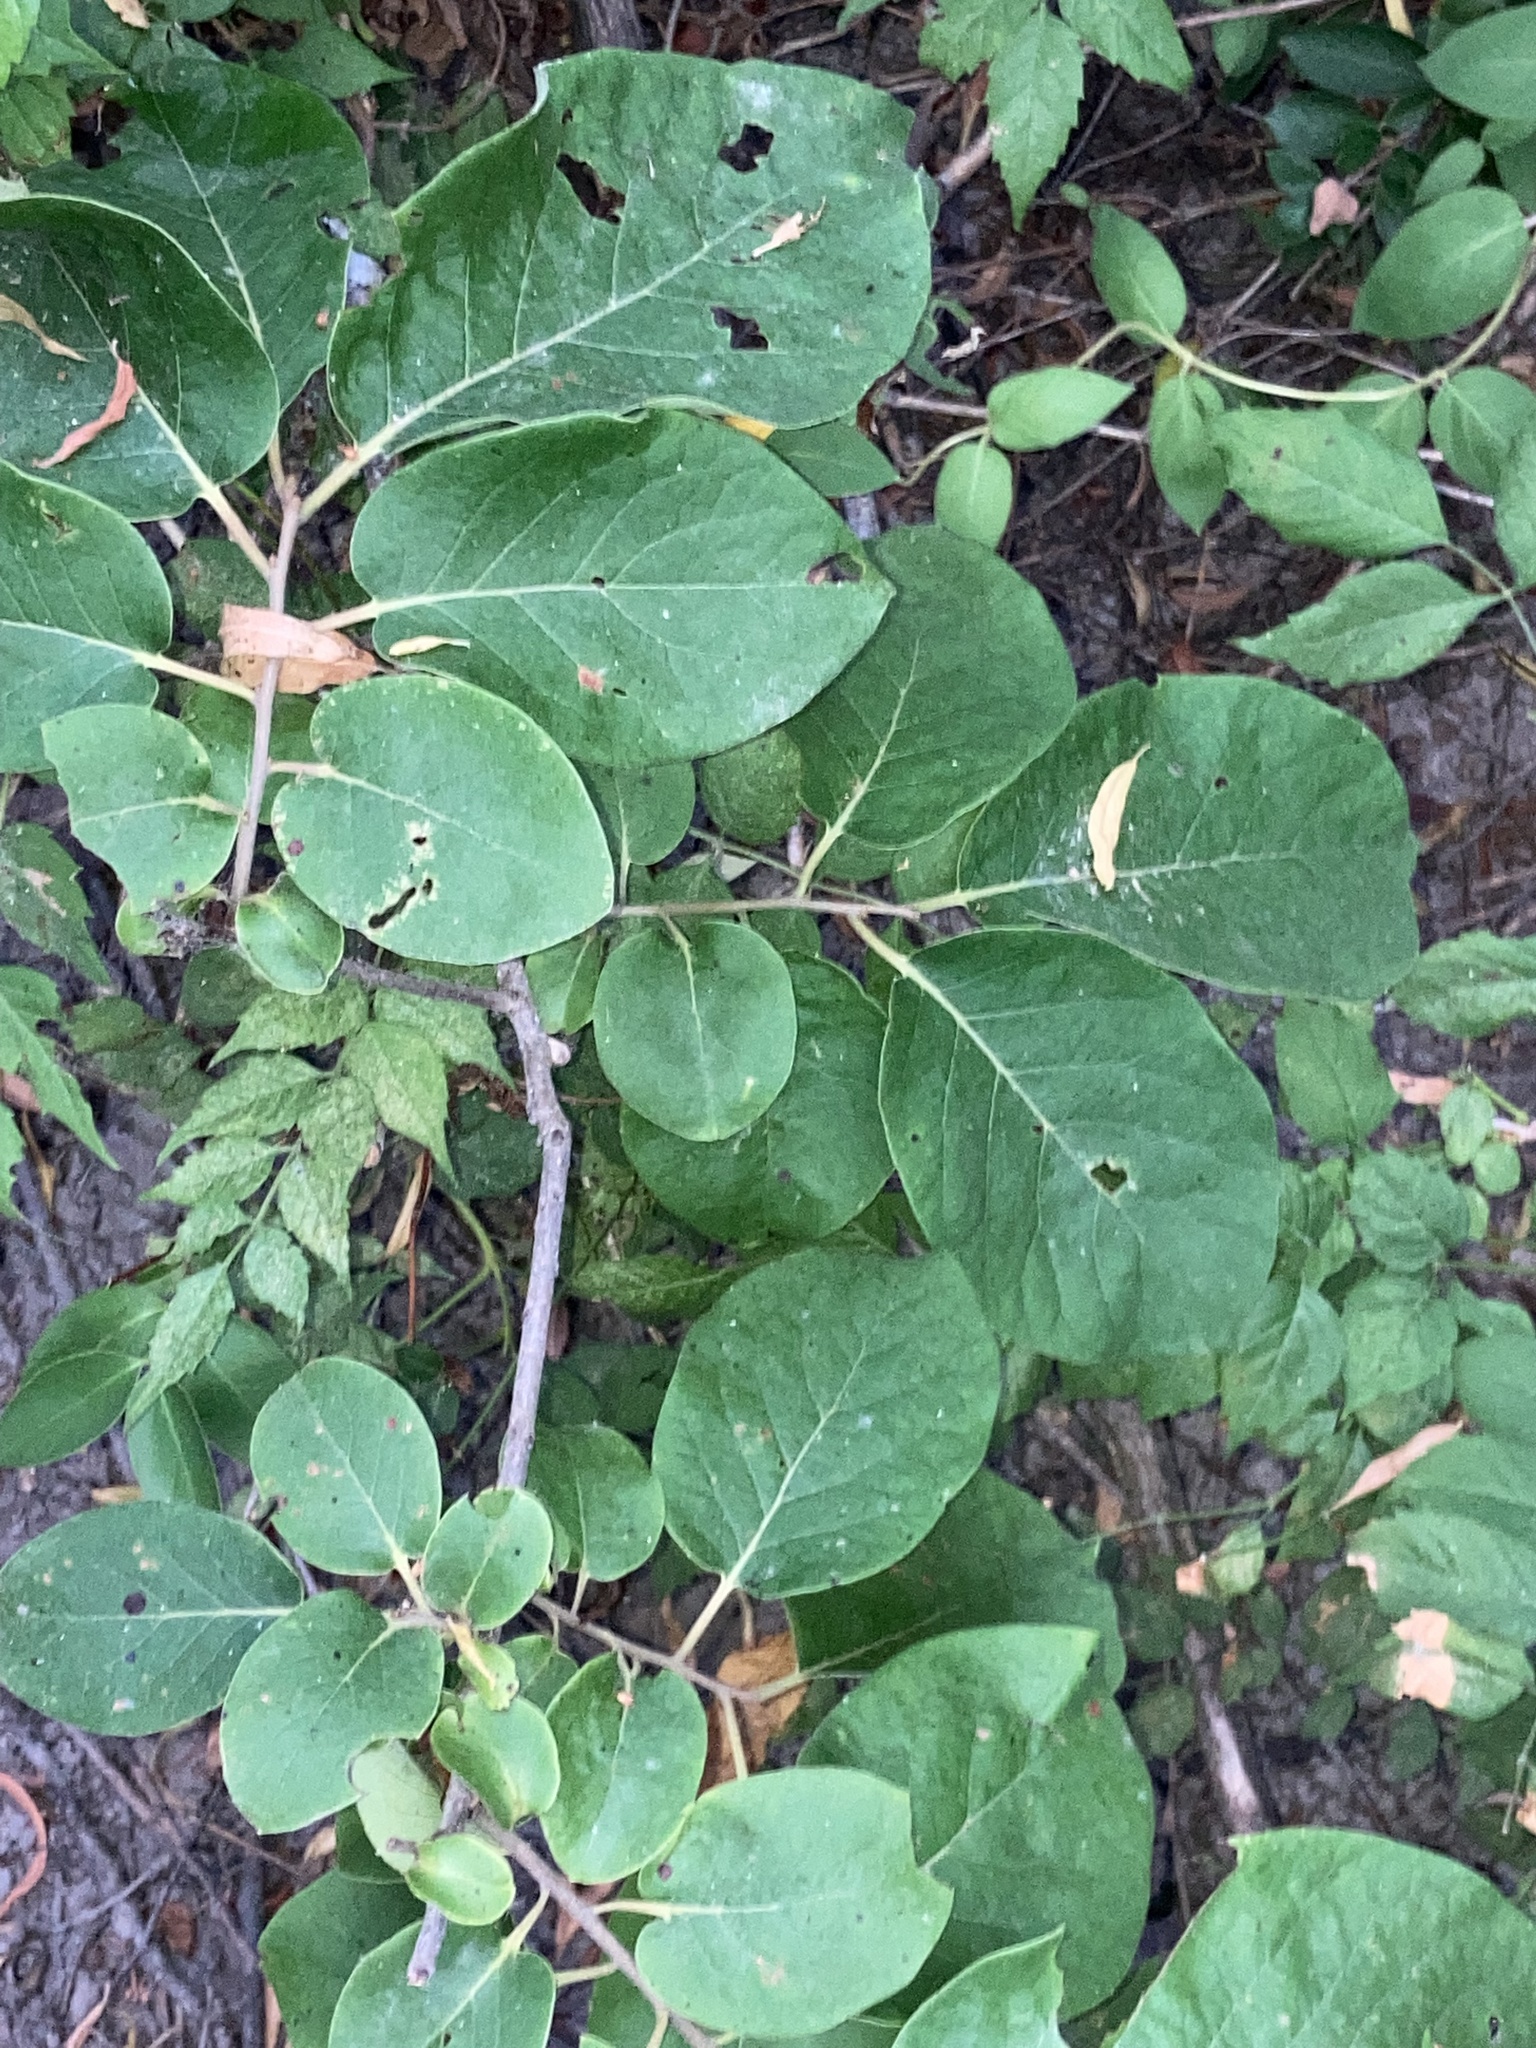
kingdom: Plantae
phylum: Tracheophyta
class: Magnoliopsida
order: Ericales
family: Ebenaceae
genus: Diospyros
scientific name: Diospyros virginiana
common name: Persimmon
